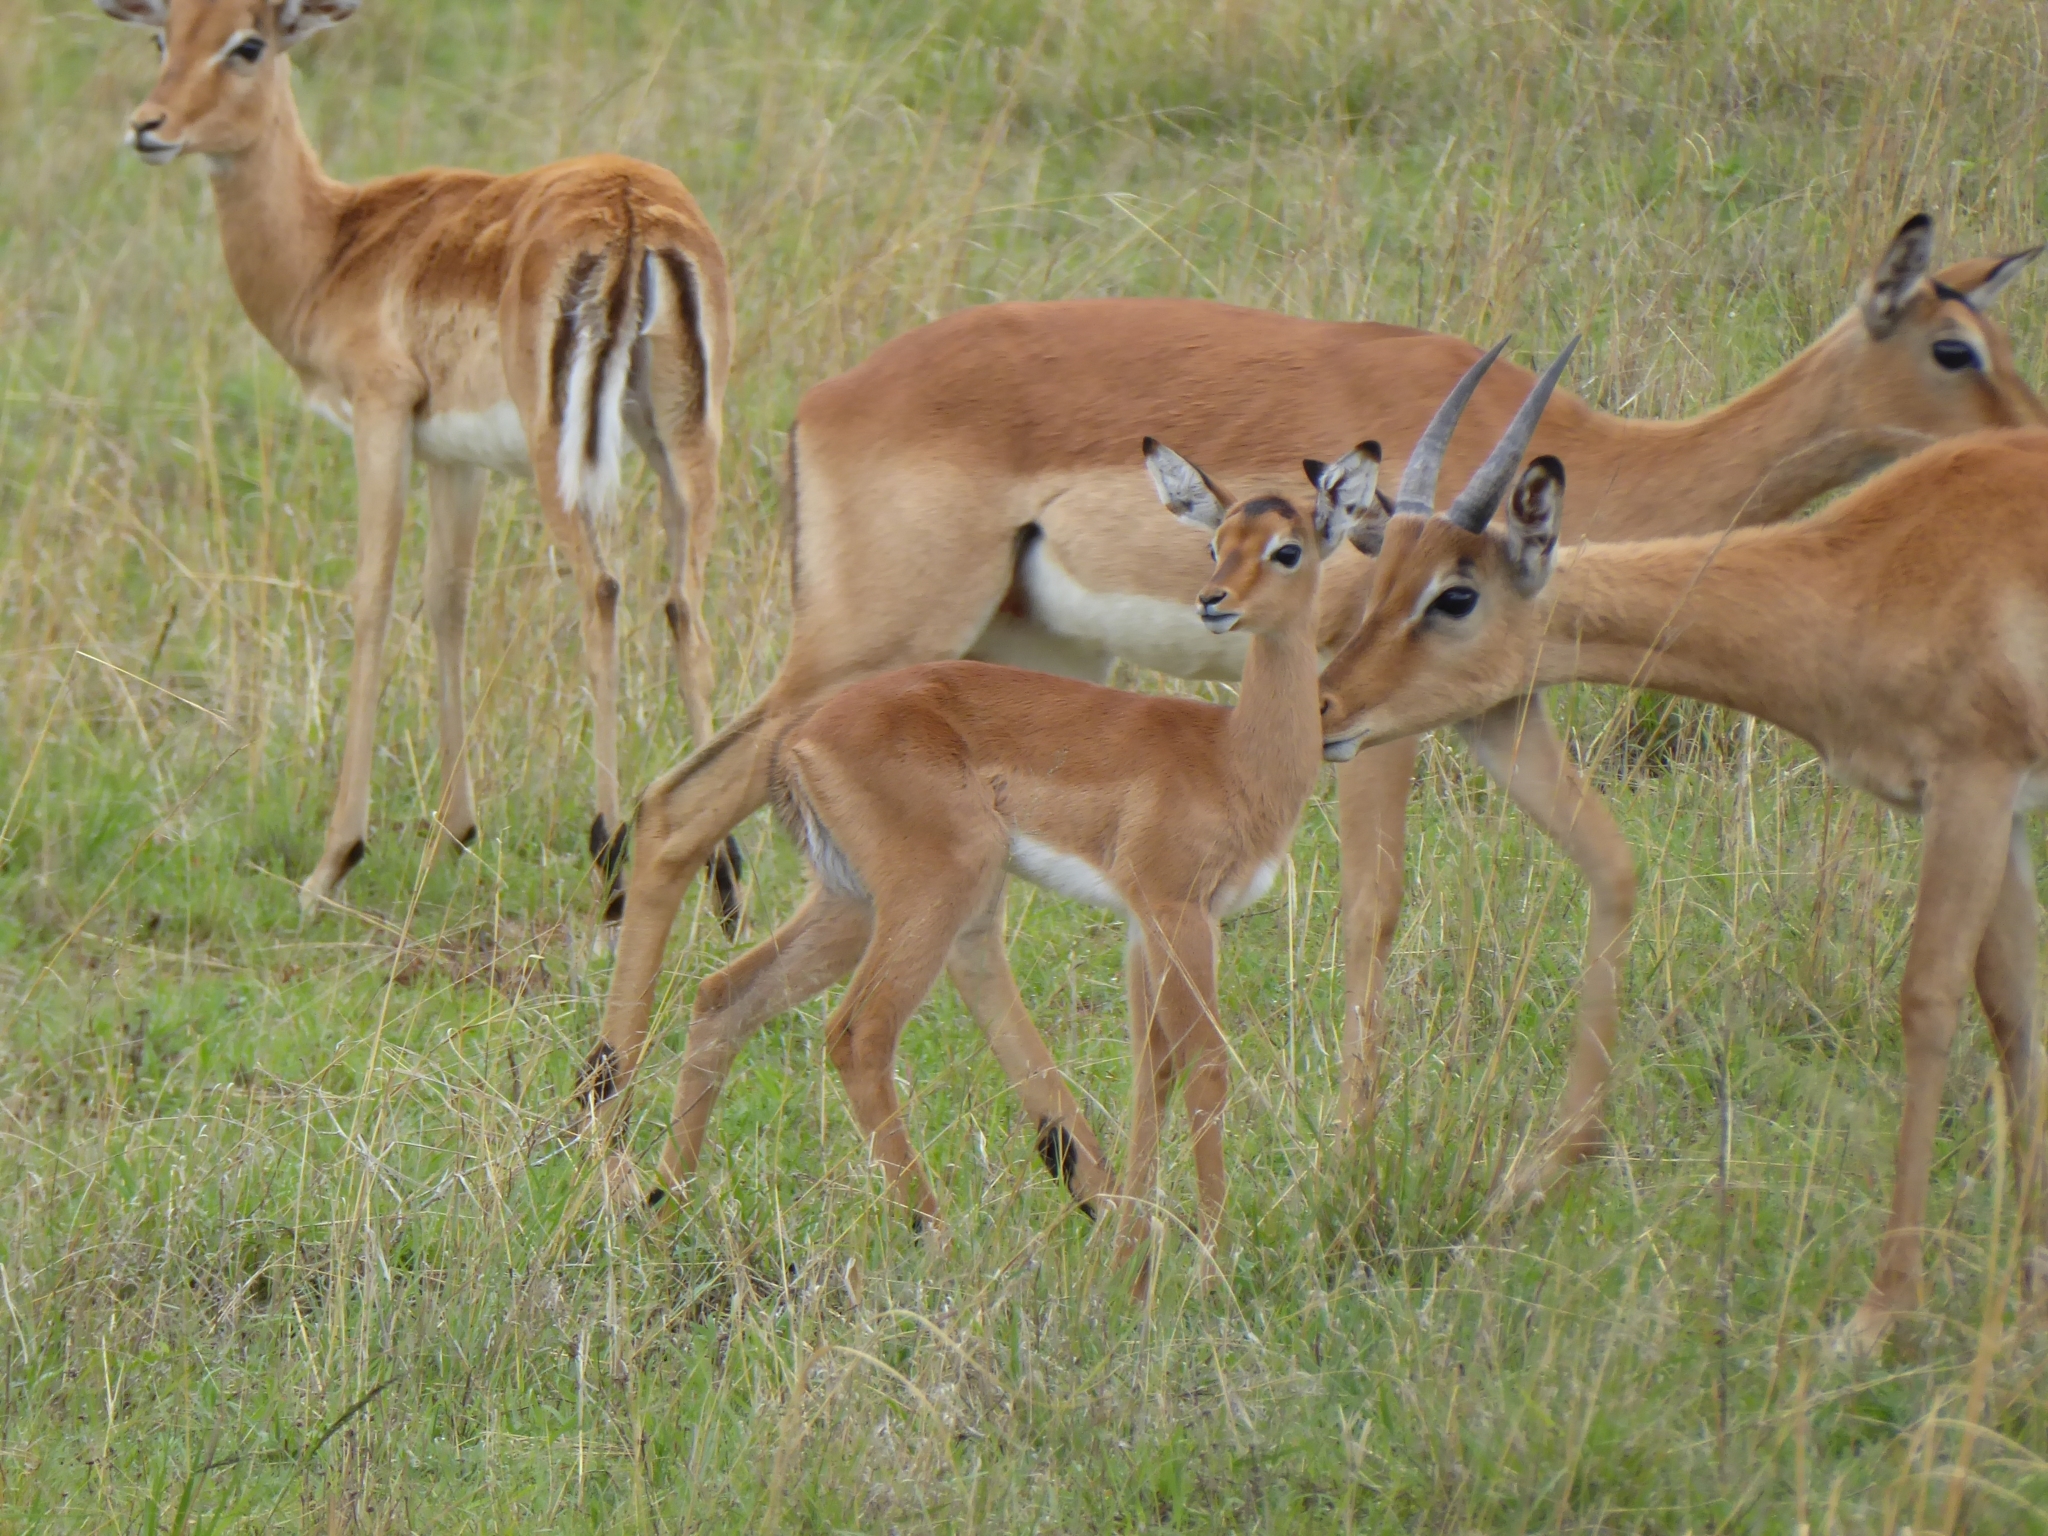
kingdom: Animalia
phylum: Chordata
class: Mammalia
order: Artiodactyla
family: Bovidae
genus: Aepyceros
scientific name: Aepyceros melampus
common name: Impala
